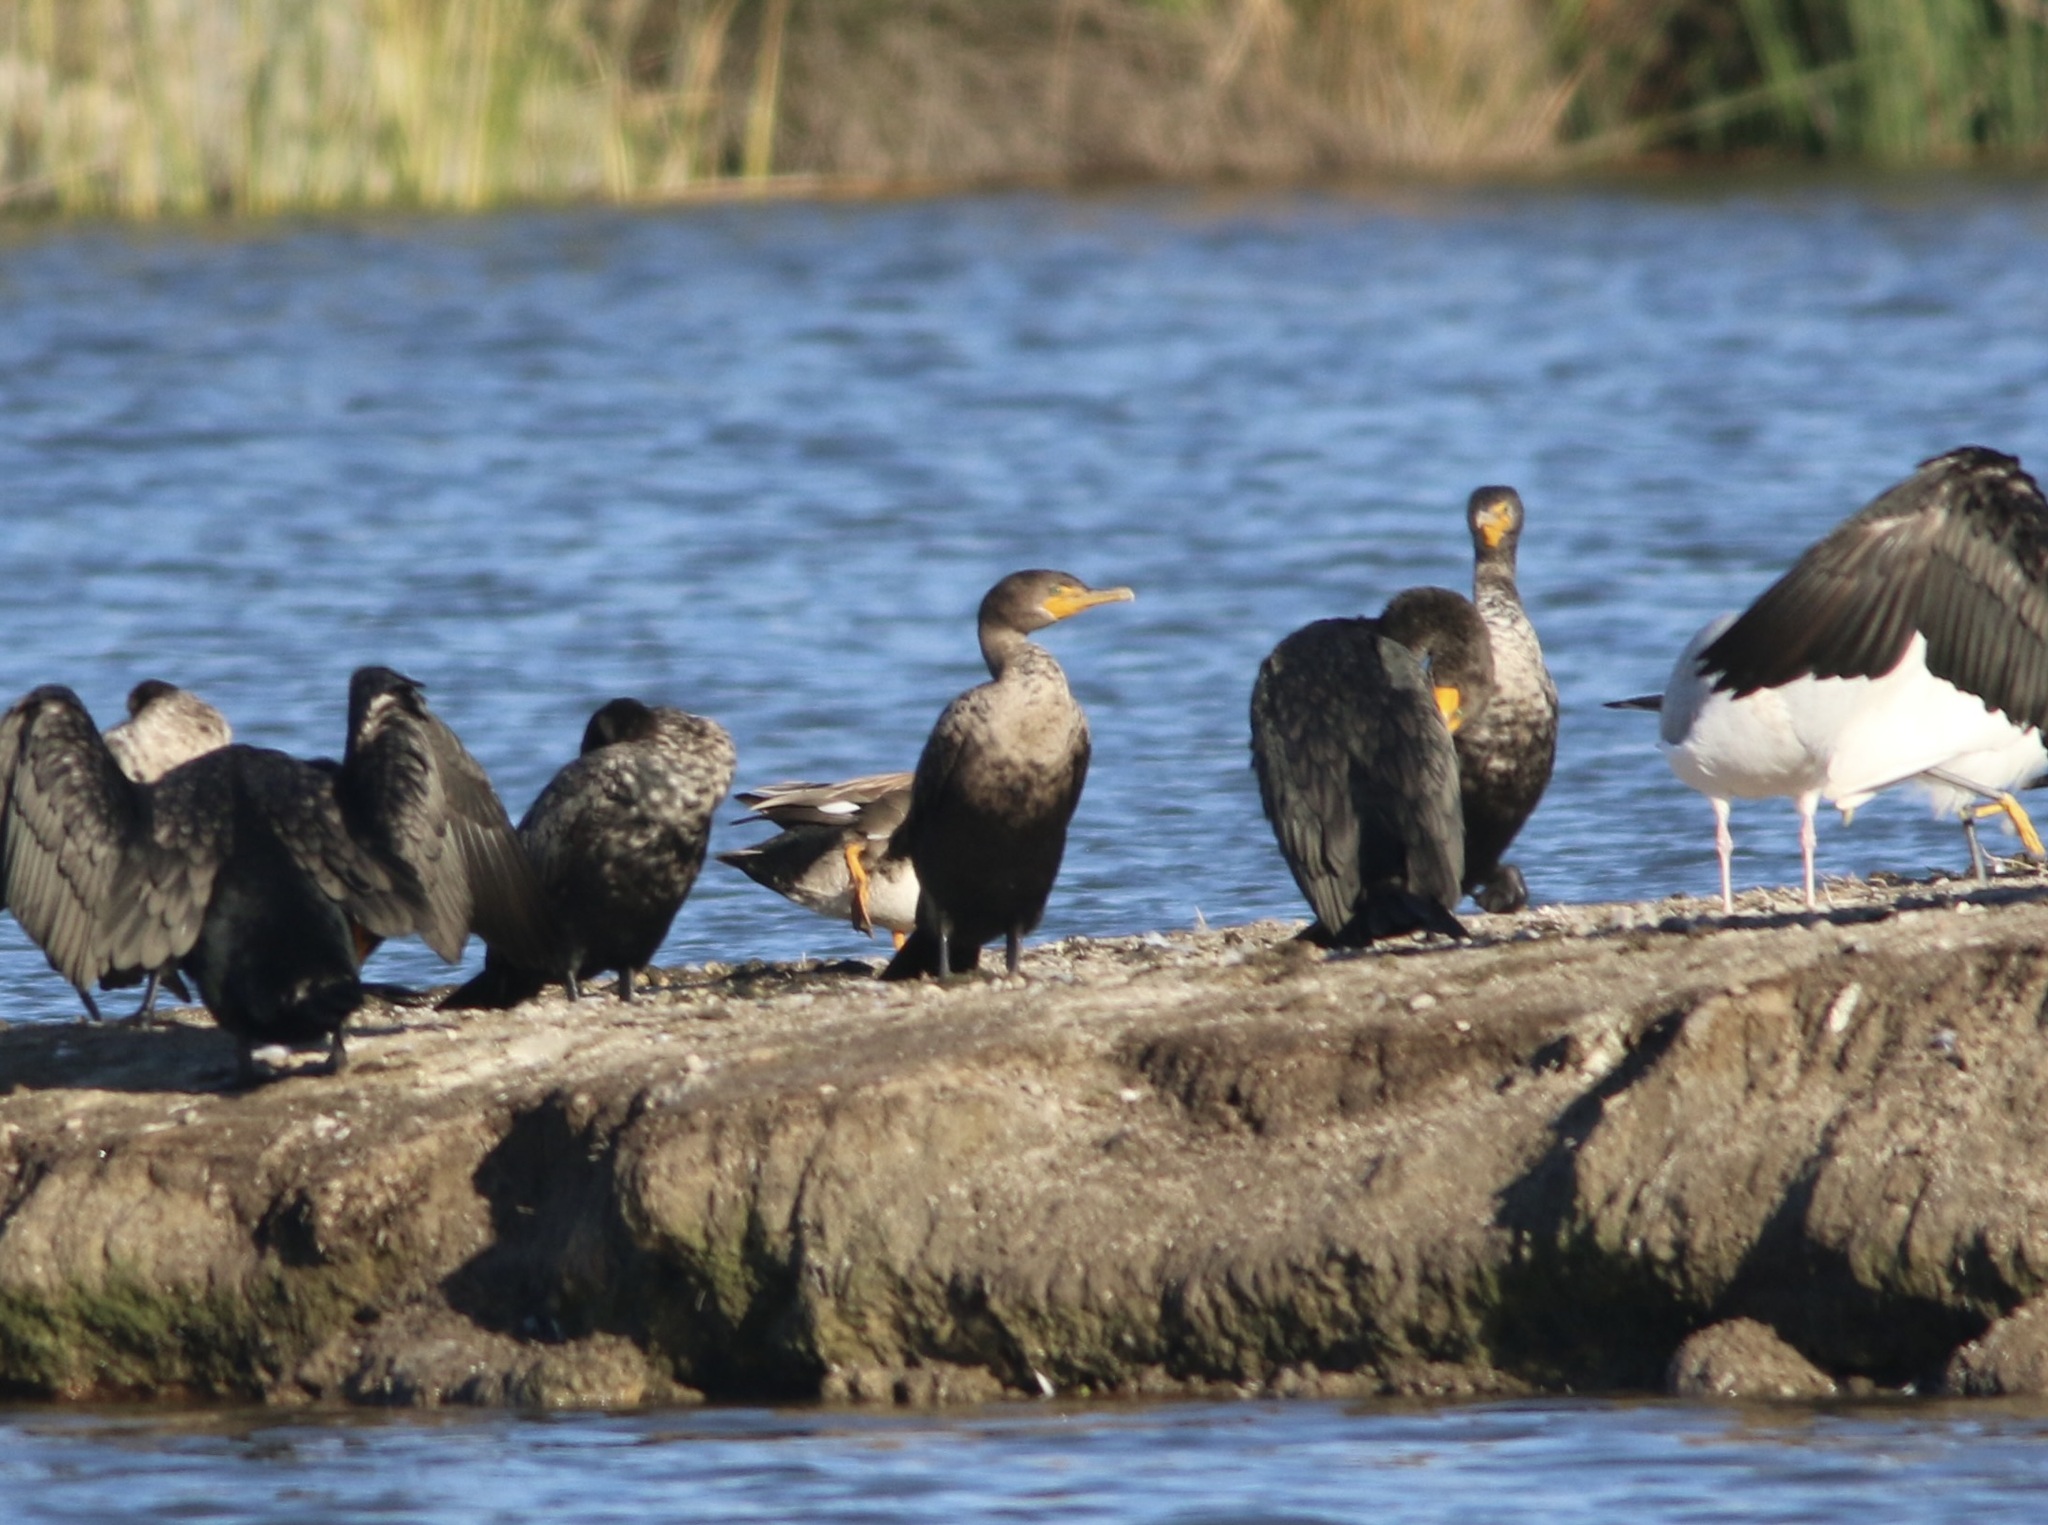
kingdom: Animalia
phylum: Chordata
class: Aves
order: Suliformes
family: Phalacrocoracidae
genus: Phalacrocorax
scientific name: Phalacrocorax auritus
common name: Double-crested cormorant
